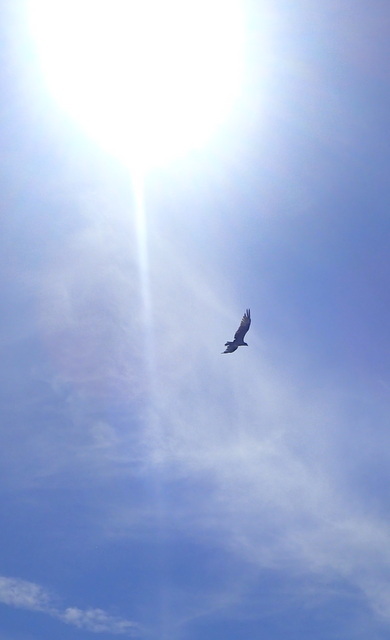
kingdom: Animalia
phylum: Chordata
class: Aves
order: Accipitriformes
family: Pandionidae
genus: Pandion
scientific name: Pandion haliaetus
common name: Osprey
